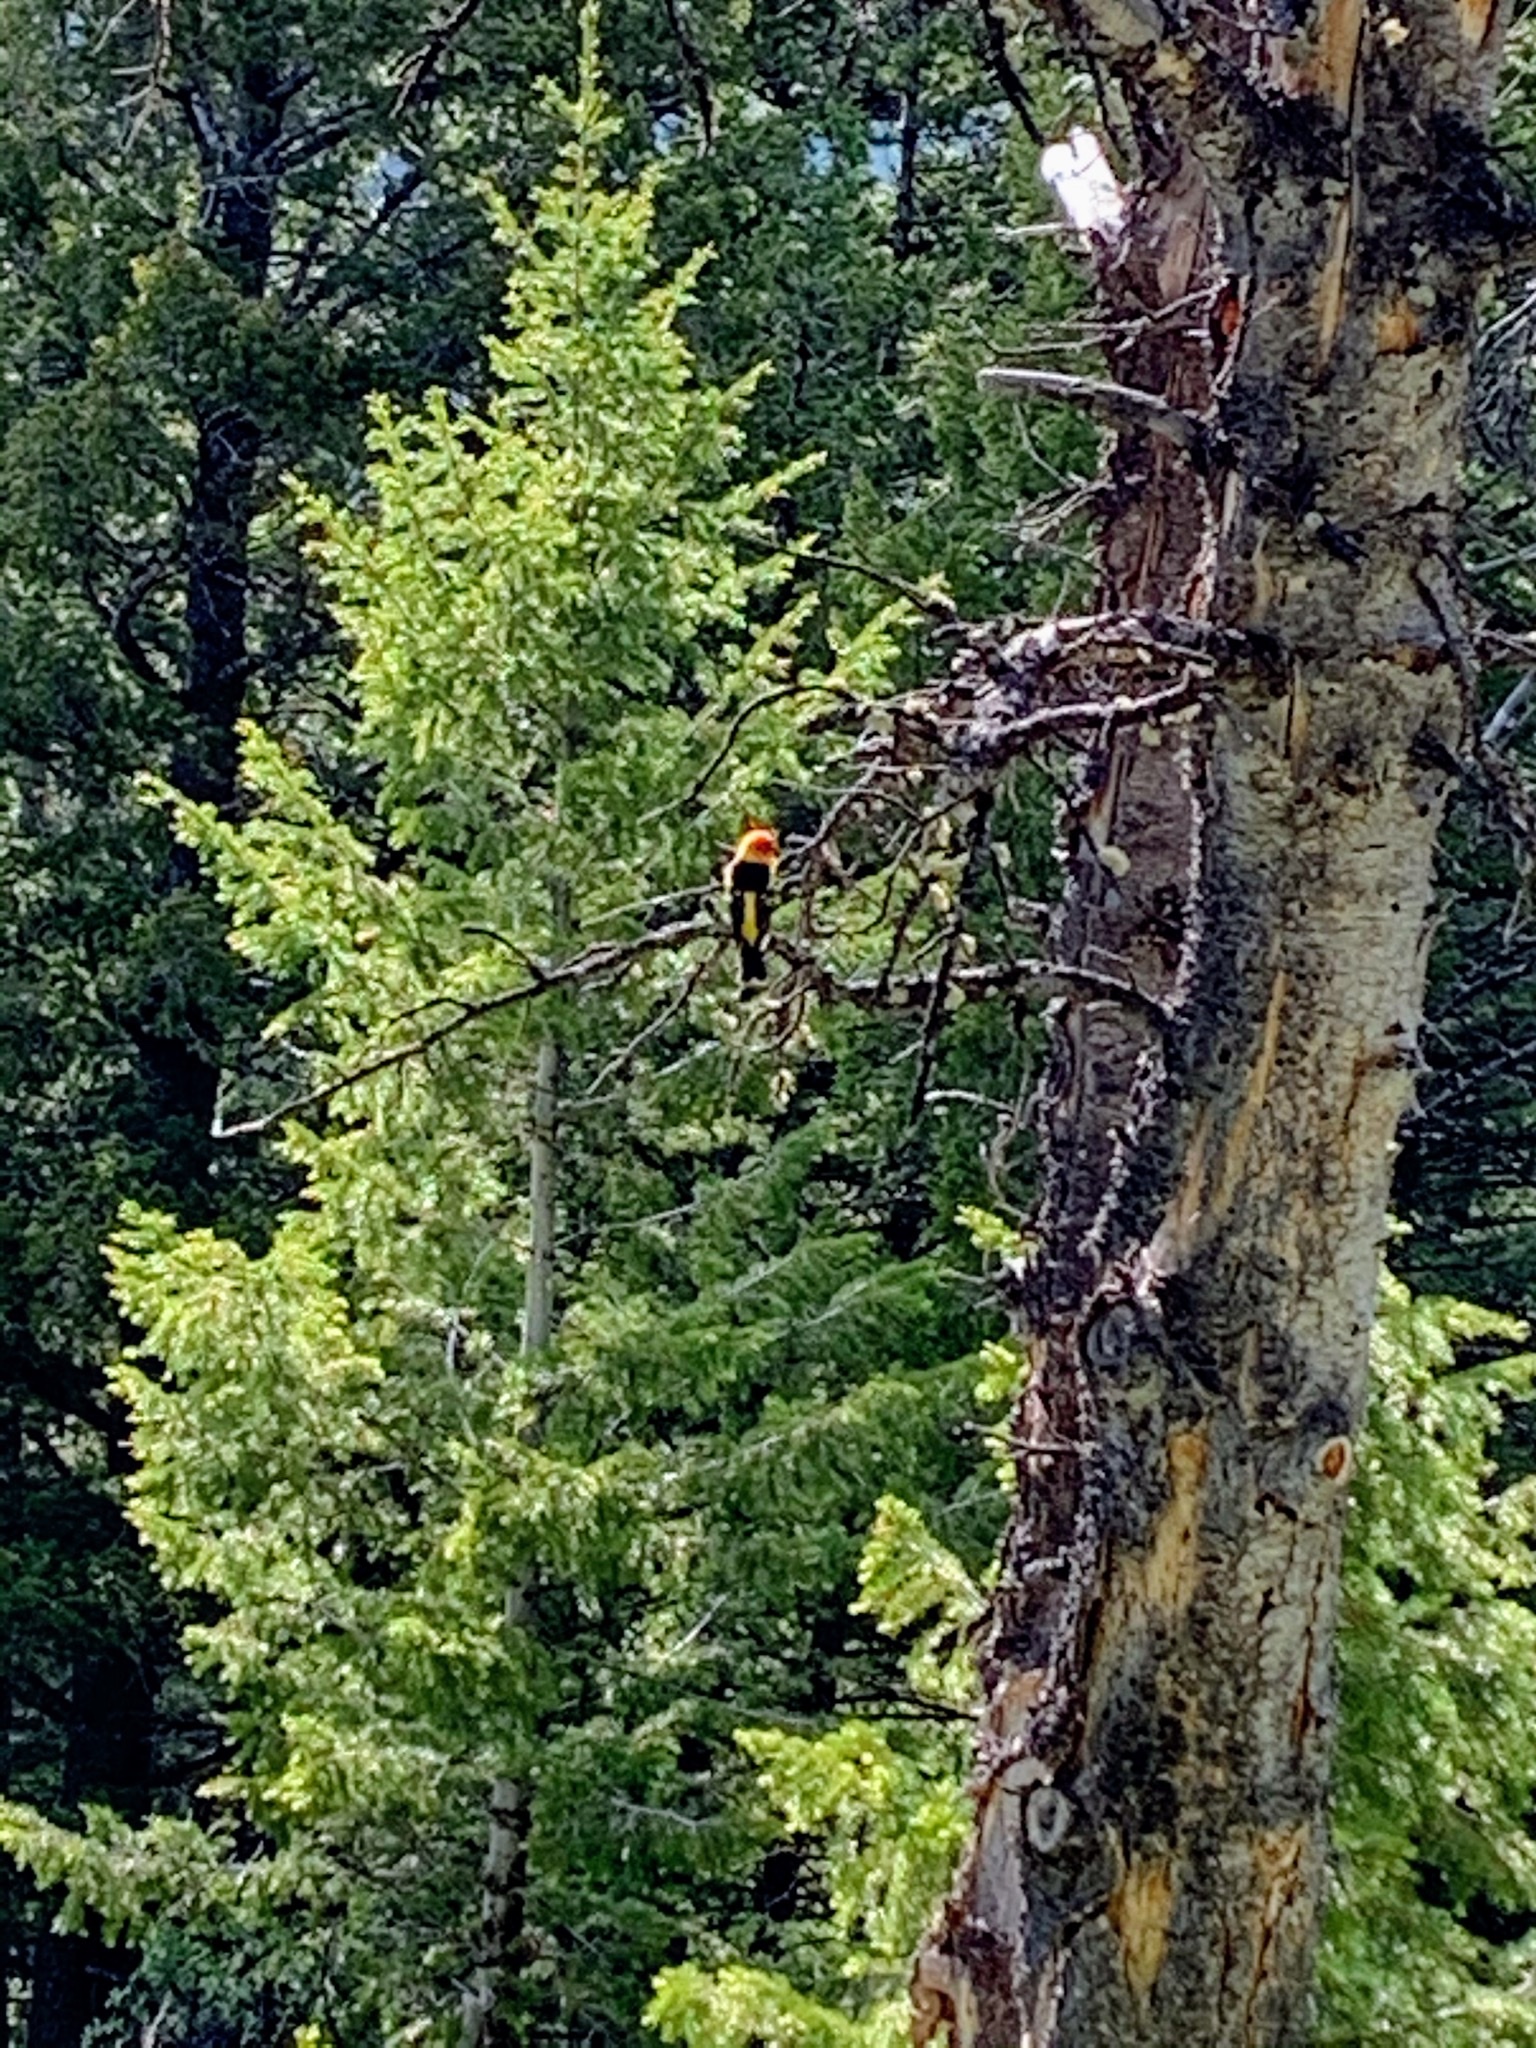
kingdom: Animalia
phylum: Chordata
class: Aves
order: Passeriformes
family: Cardinalidae
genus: Piranga
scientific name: Piranga ludoviciana
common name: Western tanager
